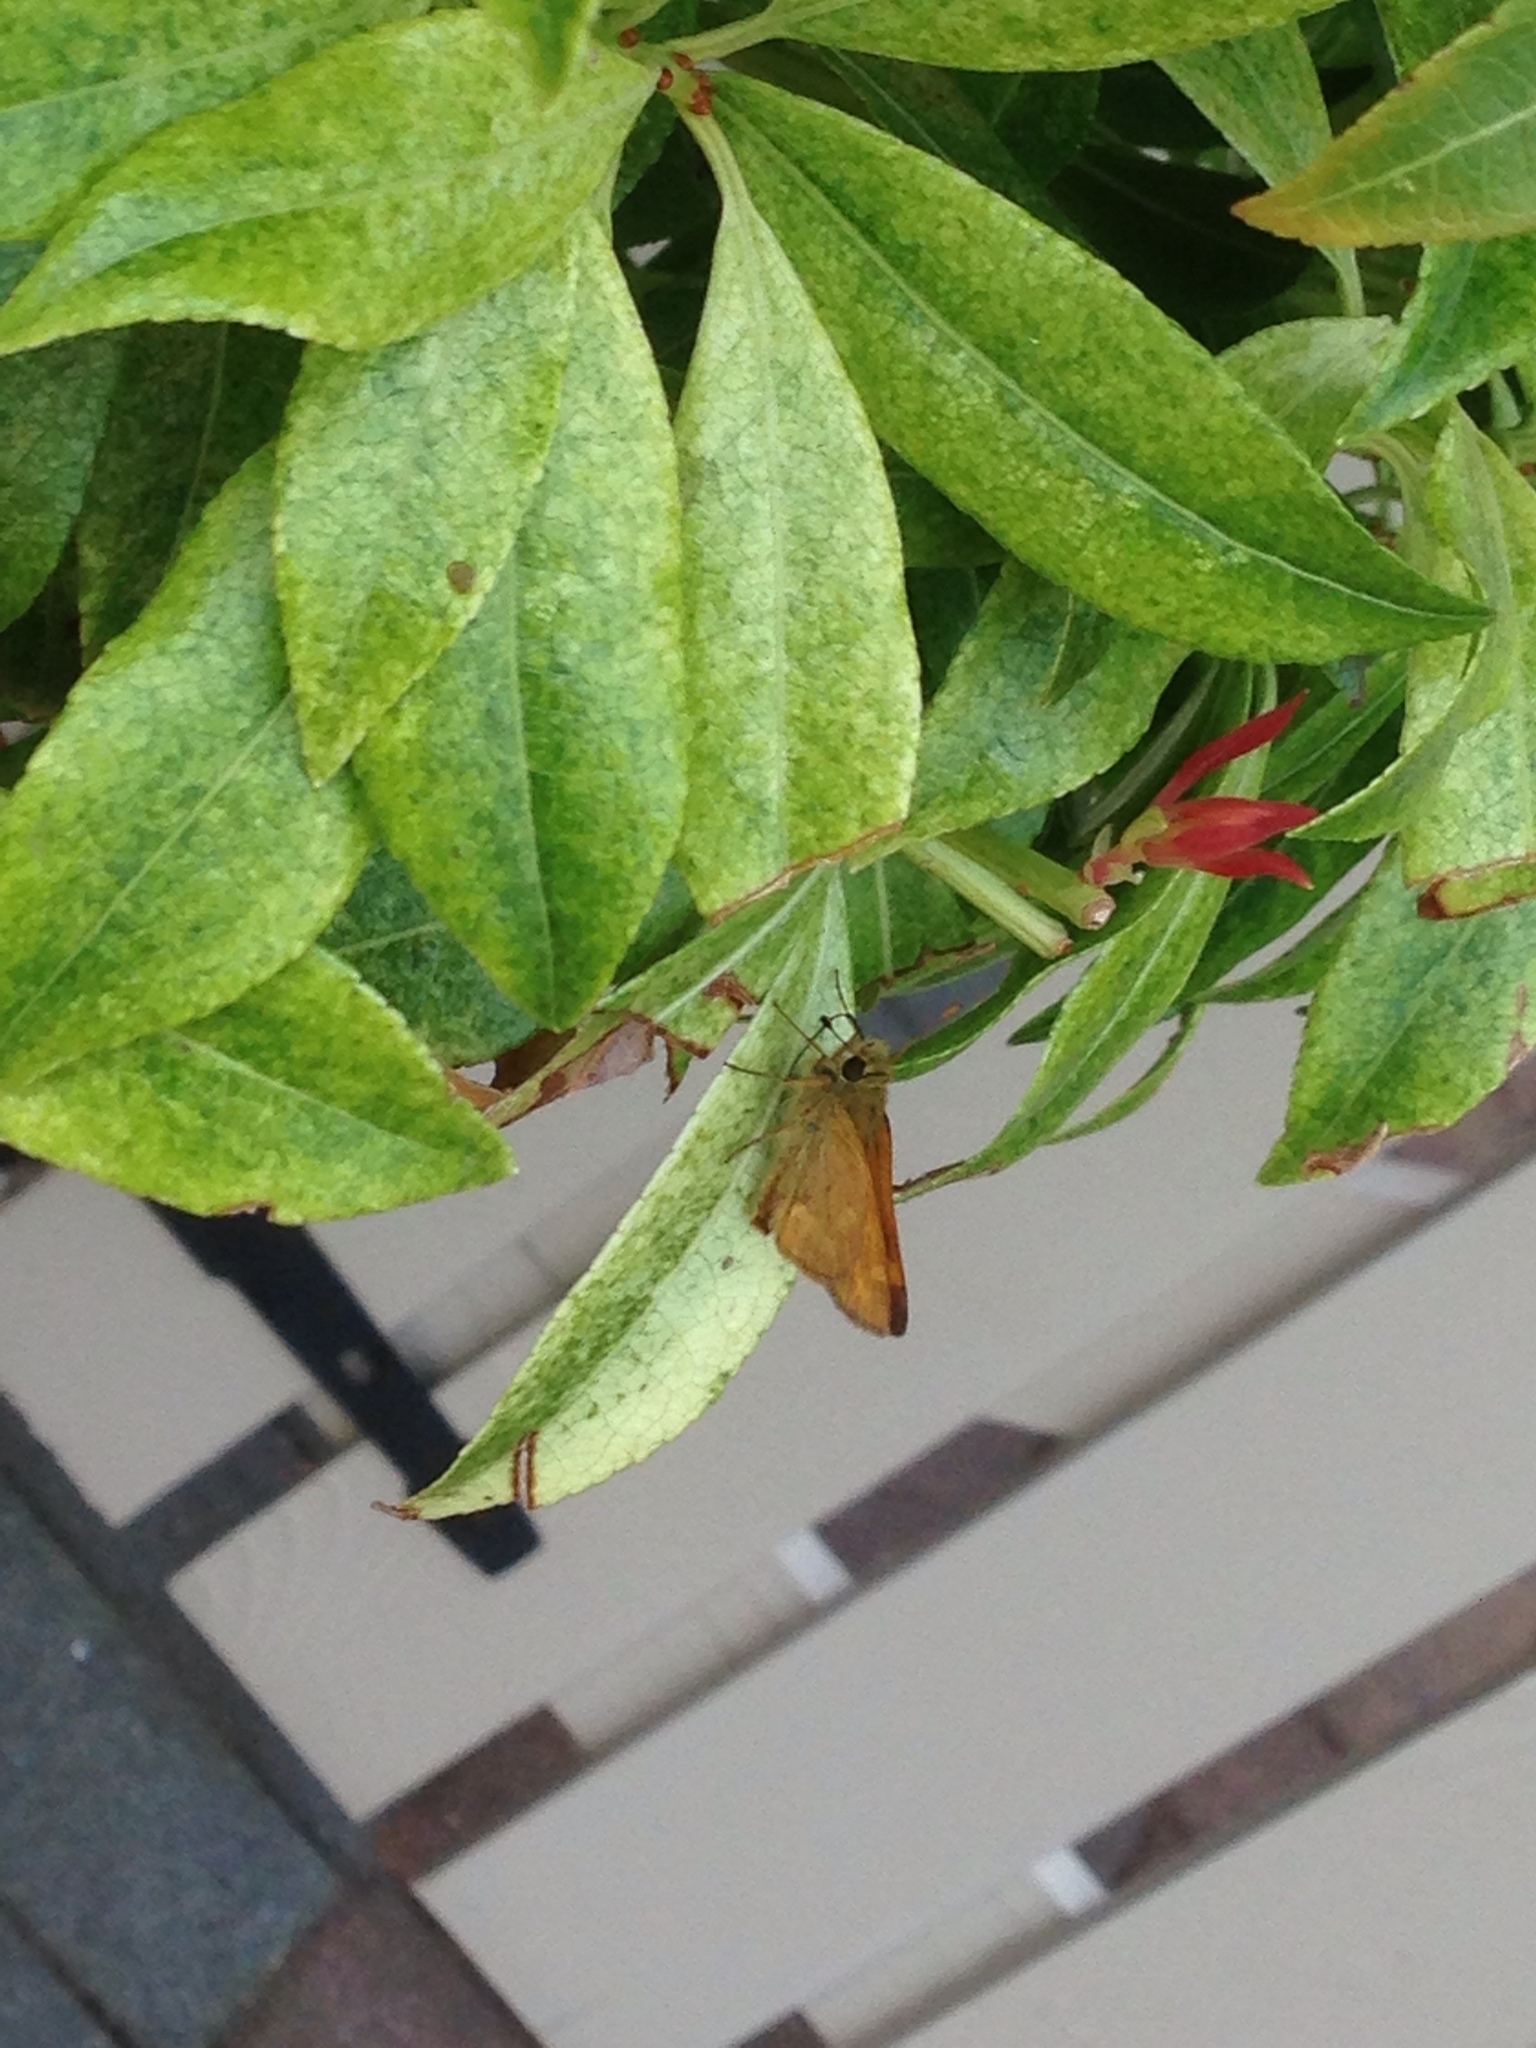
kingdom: Animalia
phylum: Arthropoda
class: Insecta
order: Lepidoptera
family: Hesperiidae
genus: Ochlodes
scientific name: Ochlodes sylvanoides
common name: Woodland skipper
